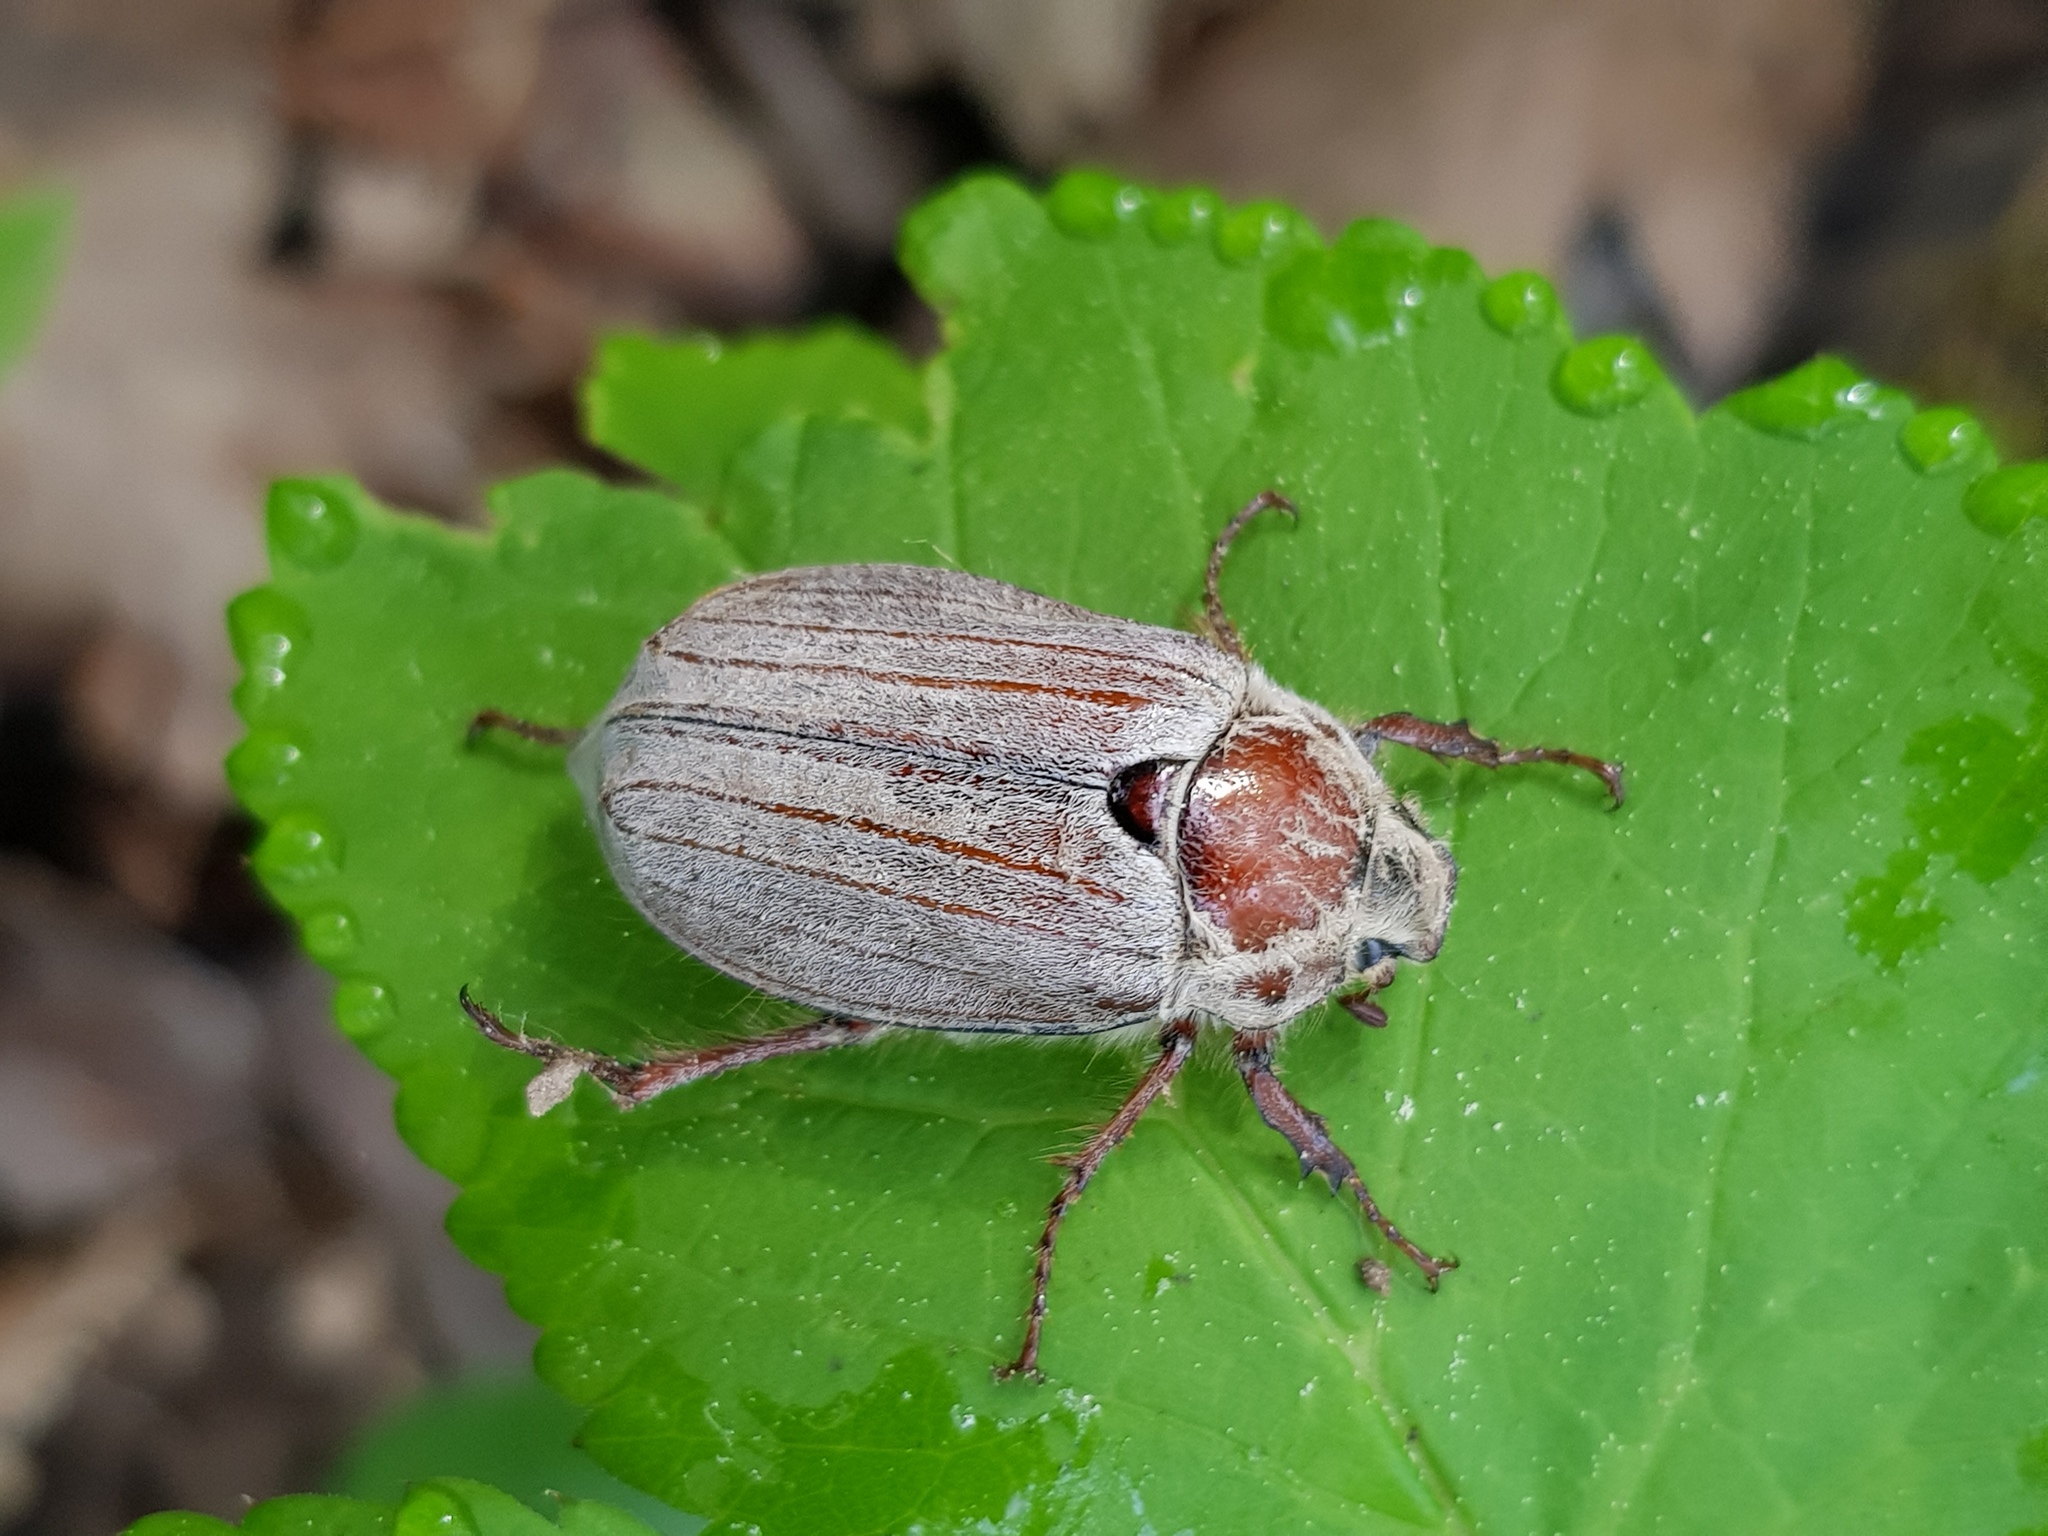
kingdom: Animalia
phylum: Arthropoda
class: Insecta
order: Coleoptera
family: Scarabaeidae
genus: Melolontha
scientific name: Melolontha hippocastani
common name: Chestnut cockchafer
